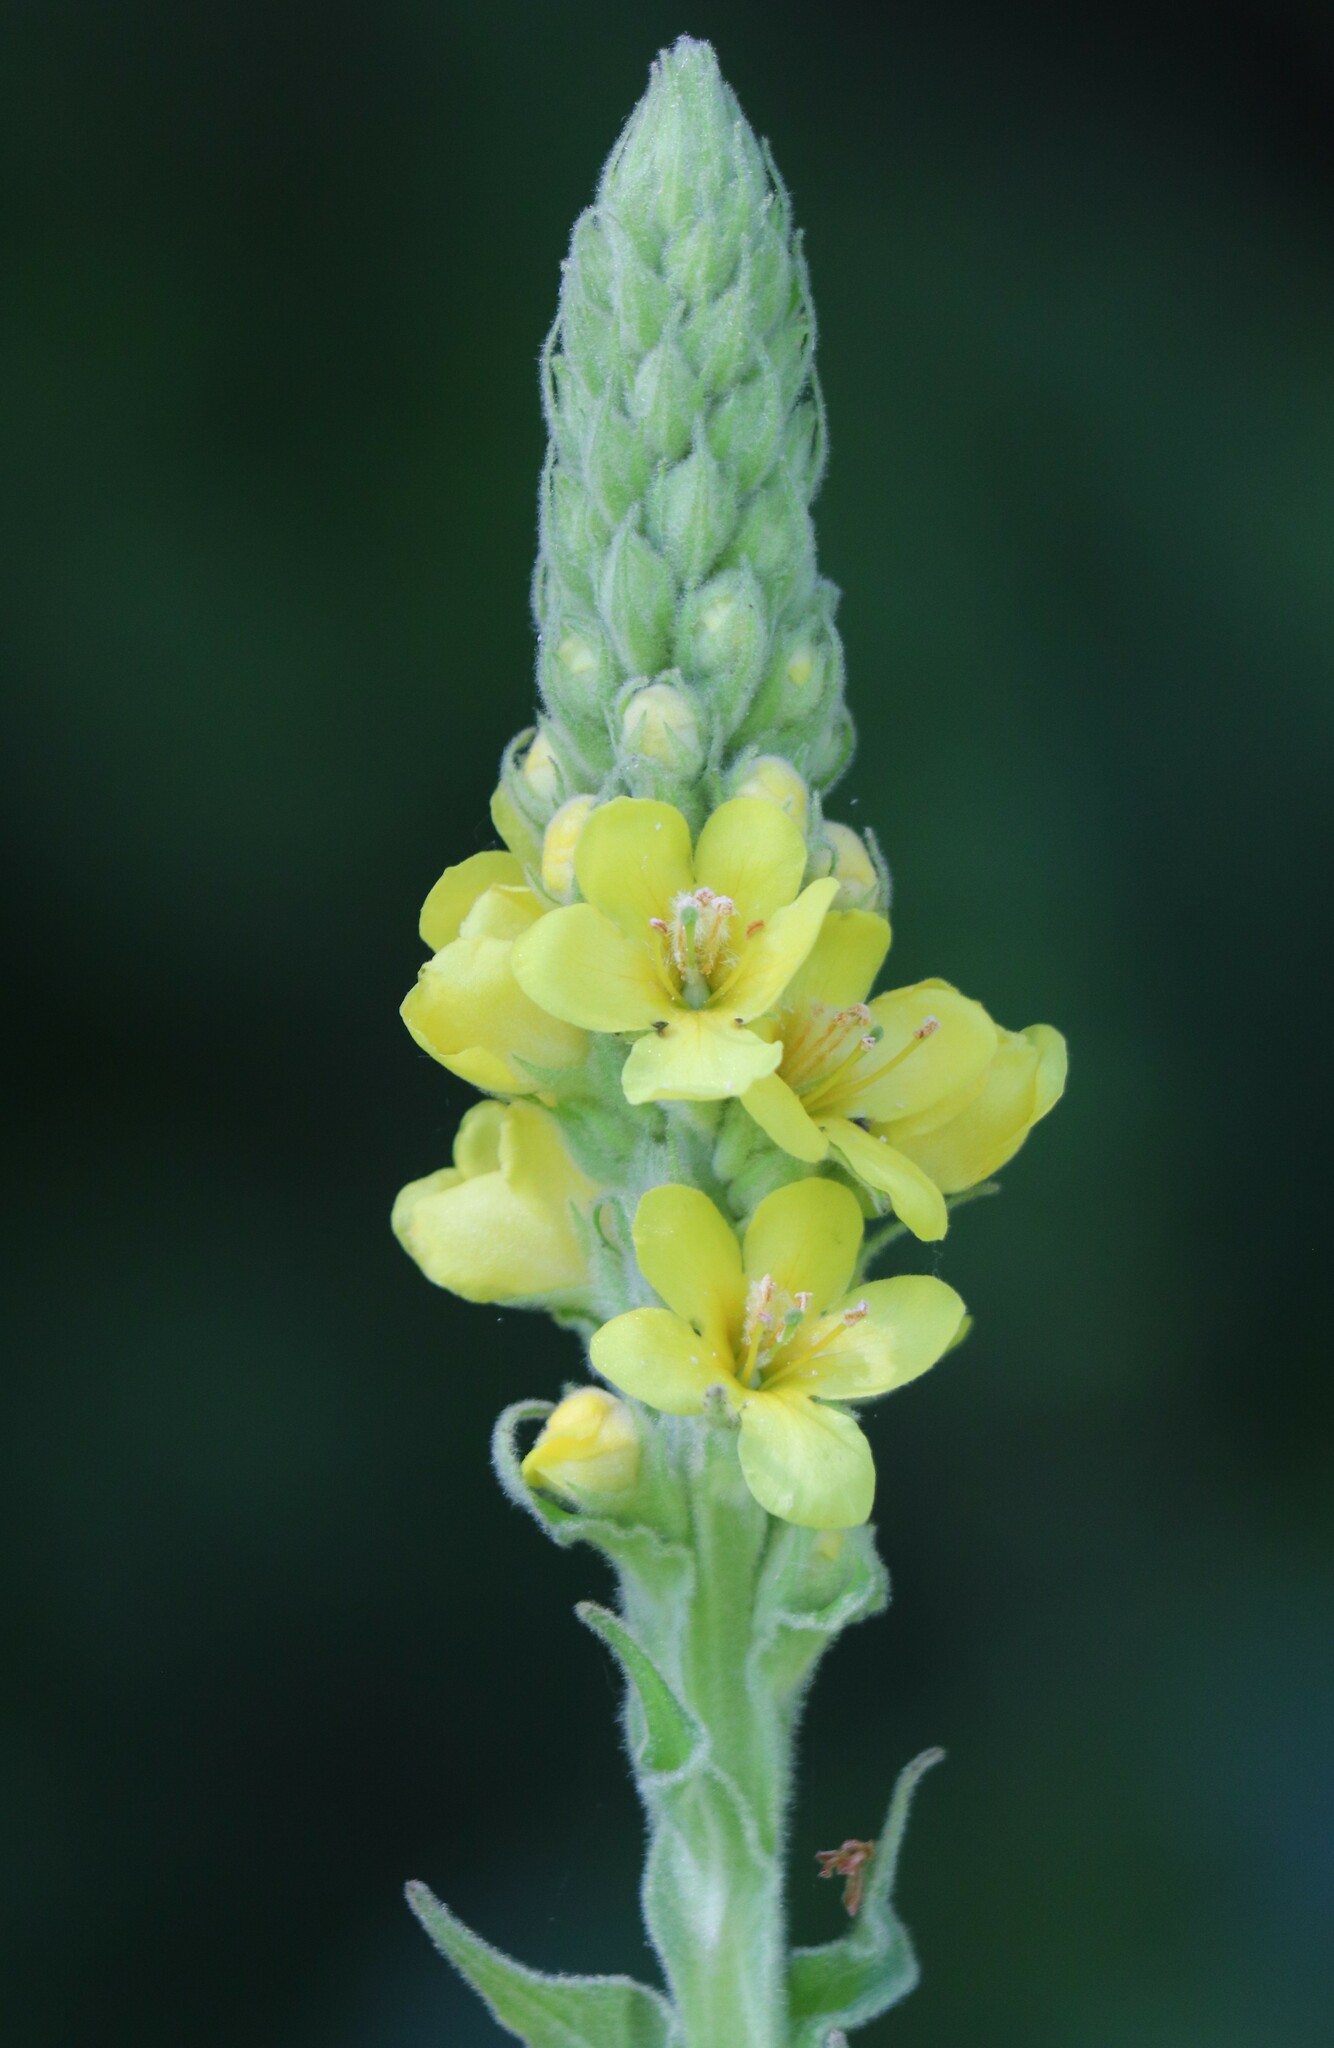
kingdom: Plantae
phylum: Tracheophyta
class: Magnoliopsida
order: Lamiales
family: Scrophulariaceae
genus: Verbascum
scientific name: Verbascum thapsus
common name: Common mullein
